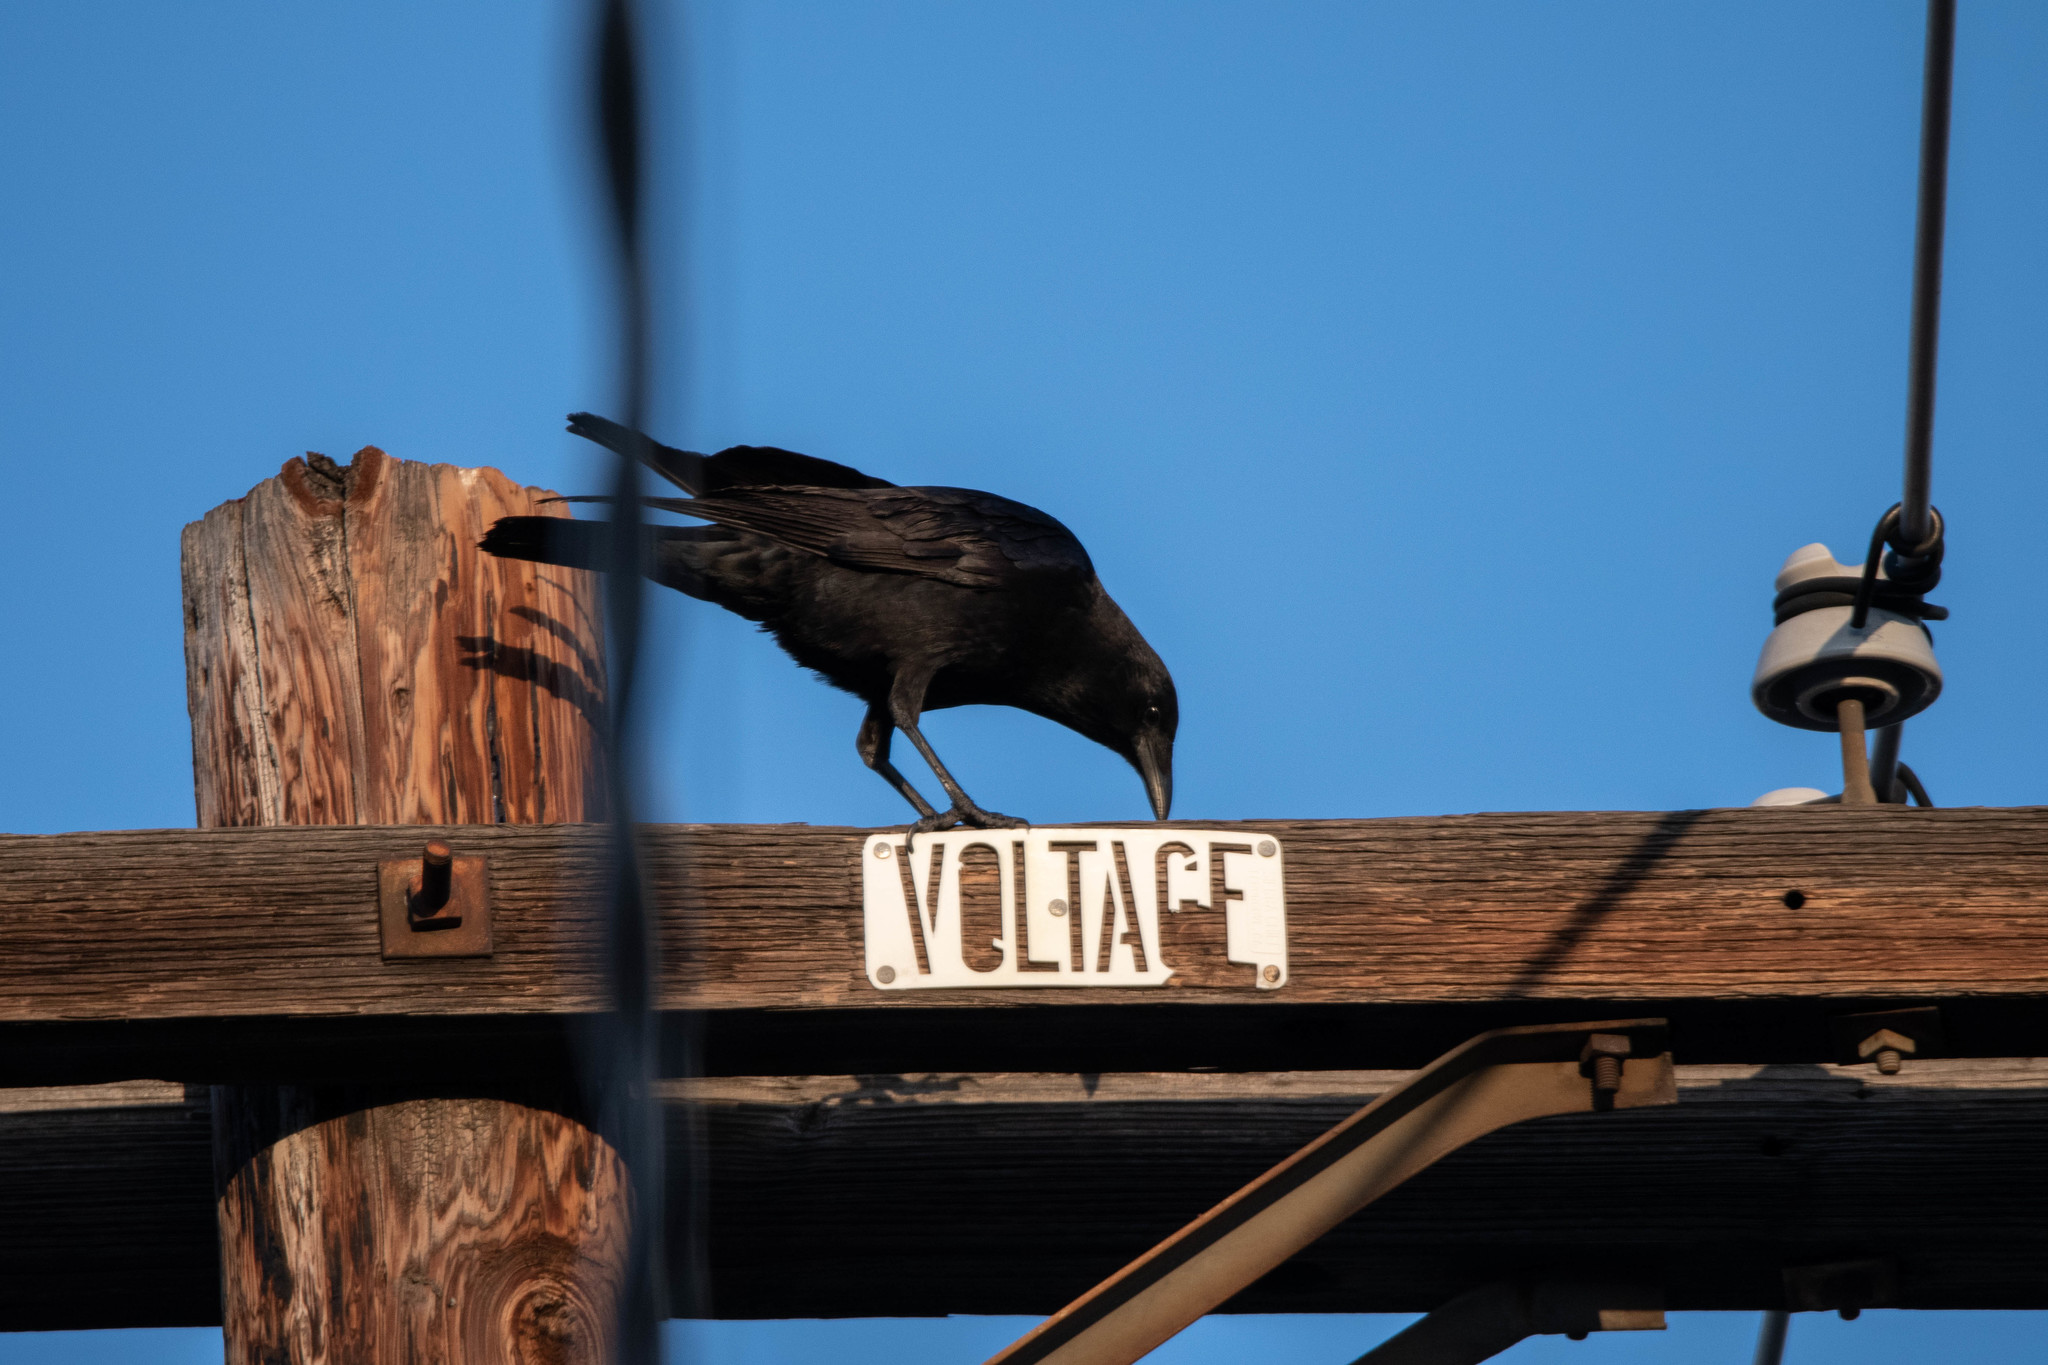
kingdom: Animalia
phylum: Chordata
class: Aves
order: Passeriformes
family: Corvidae
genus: Corvus
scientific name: Corvus brachyrhynchos
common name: American crow
